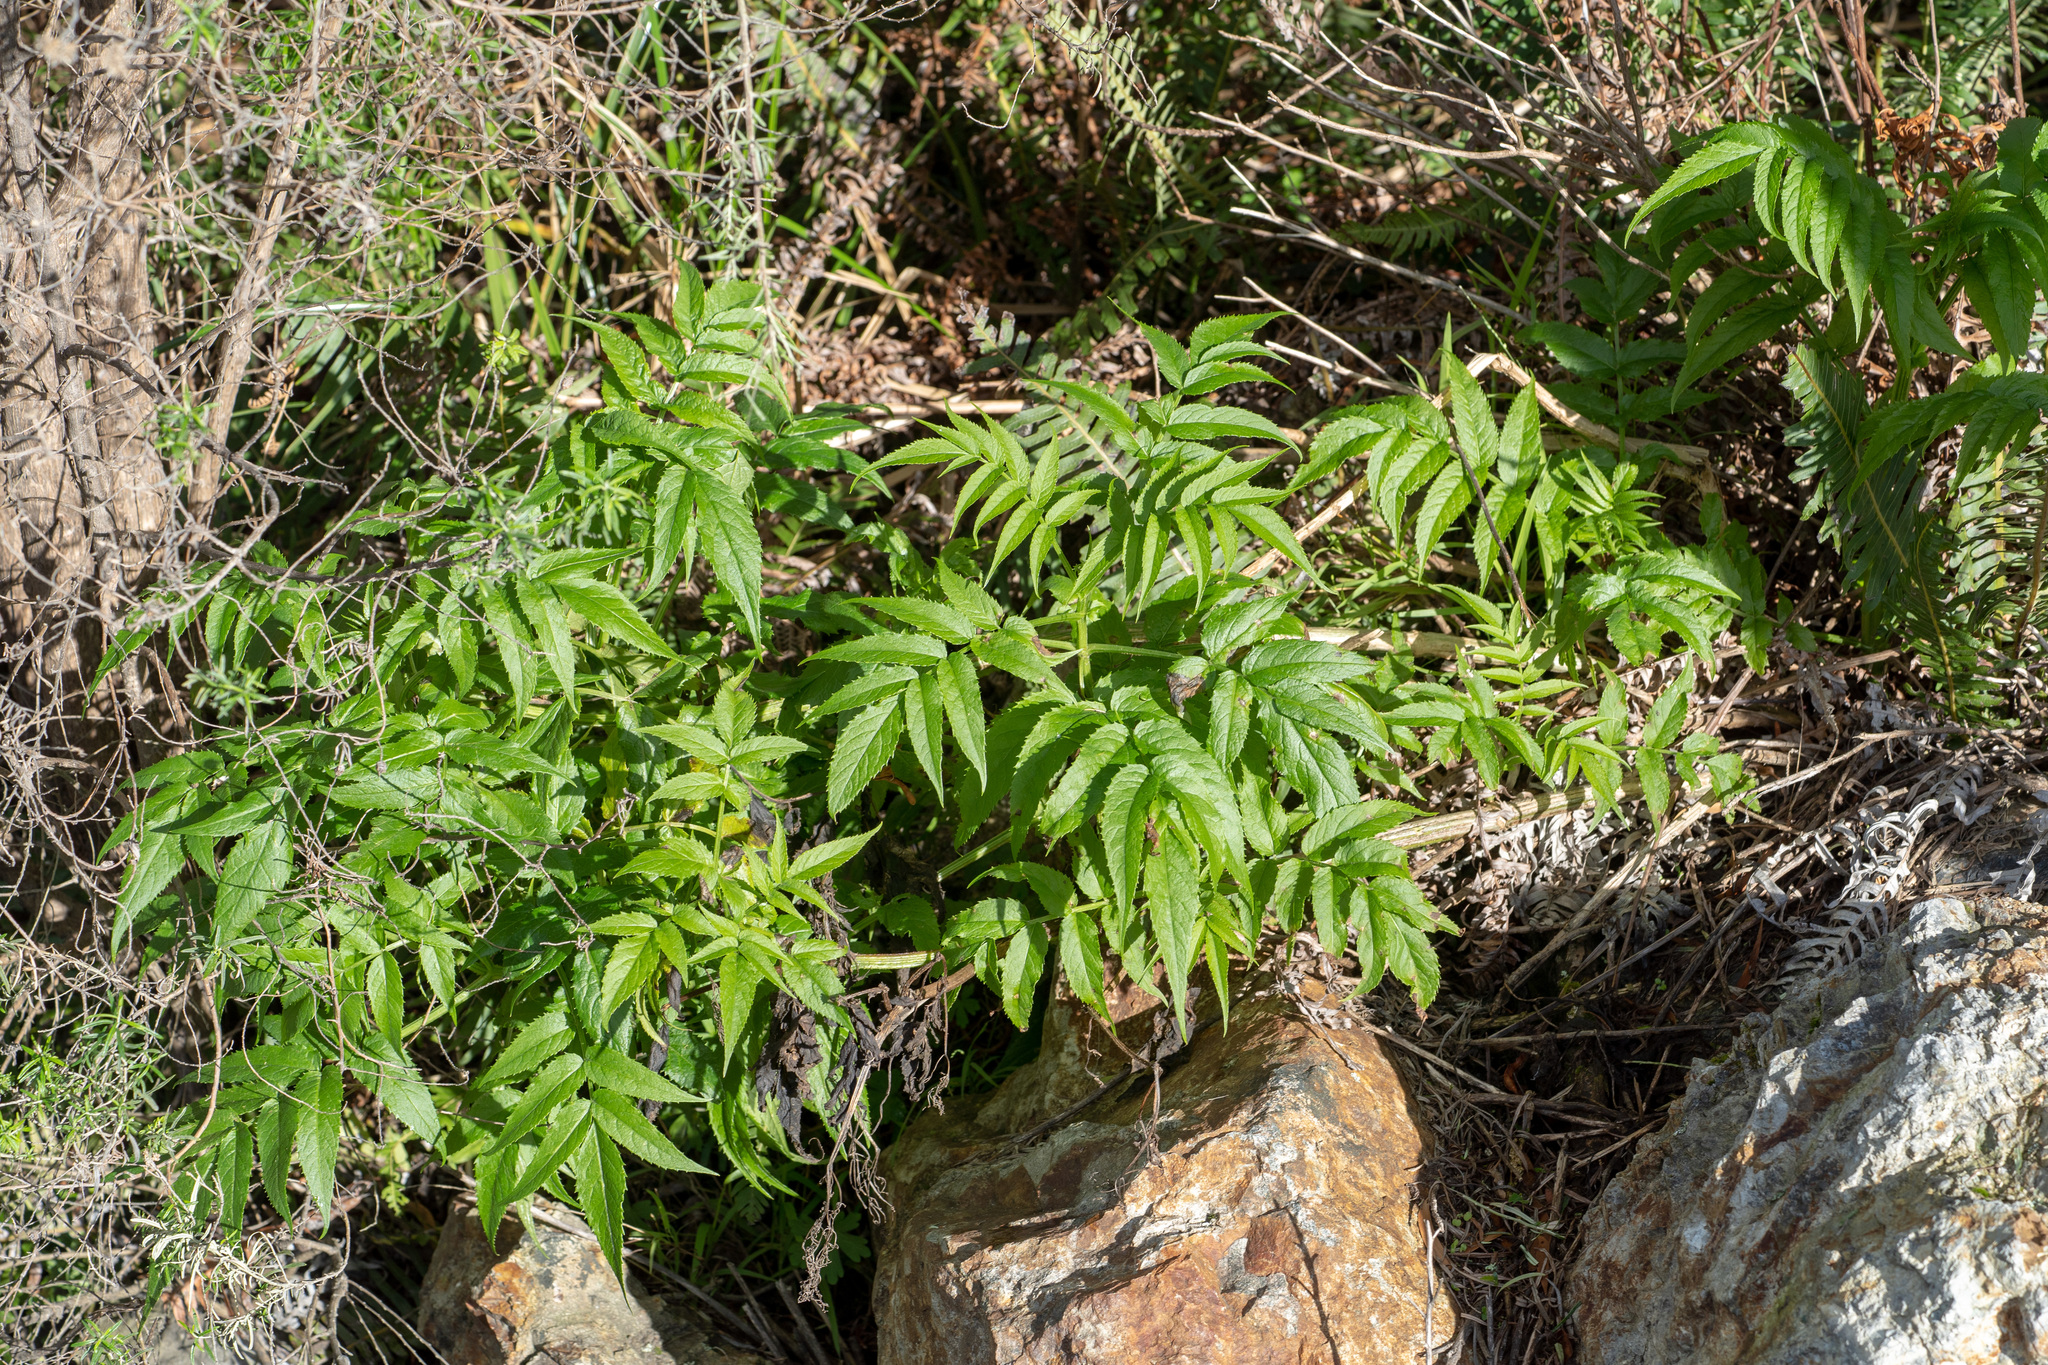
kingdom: Plantae
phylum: Tracheophyta
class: Magnoliopsida
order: Dipsacales
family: Viburnaceae
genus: Sambucus
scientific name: Sambucus gaudichaudiana
